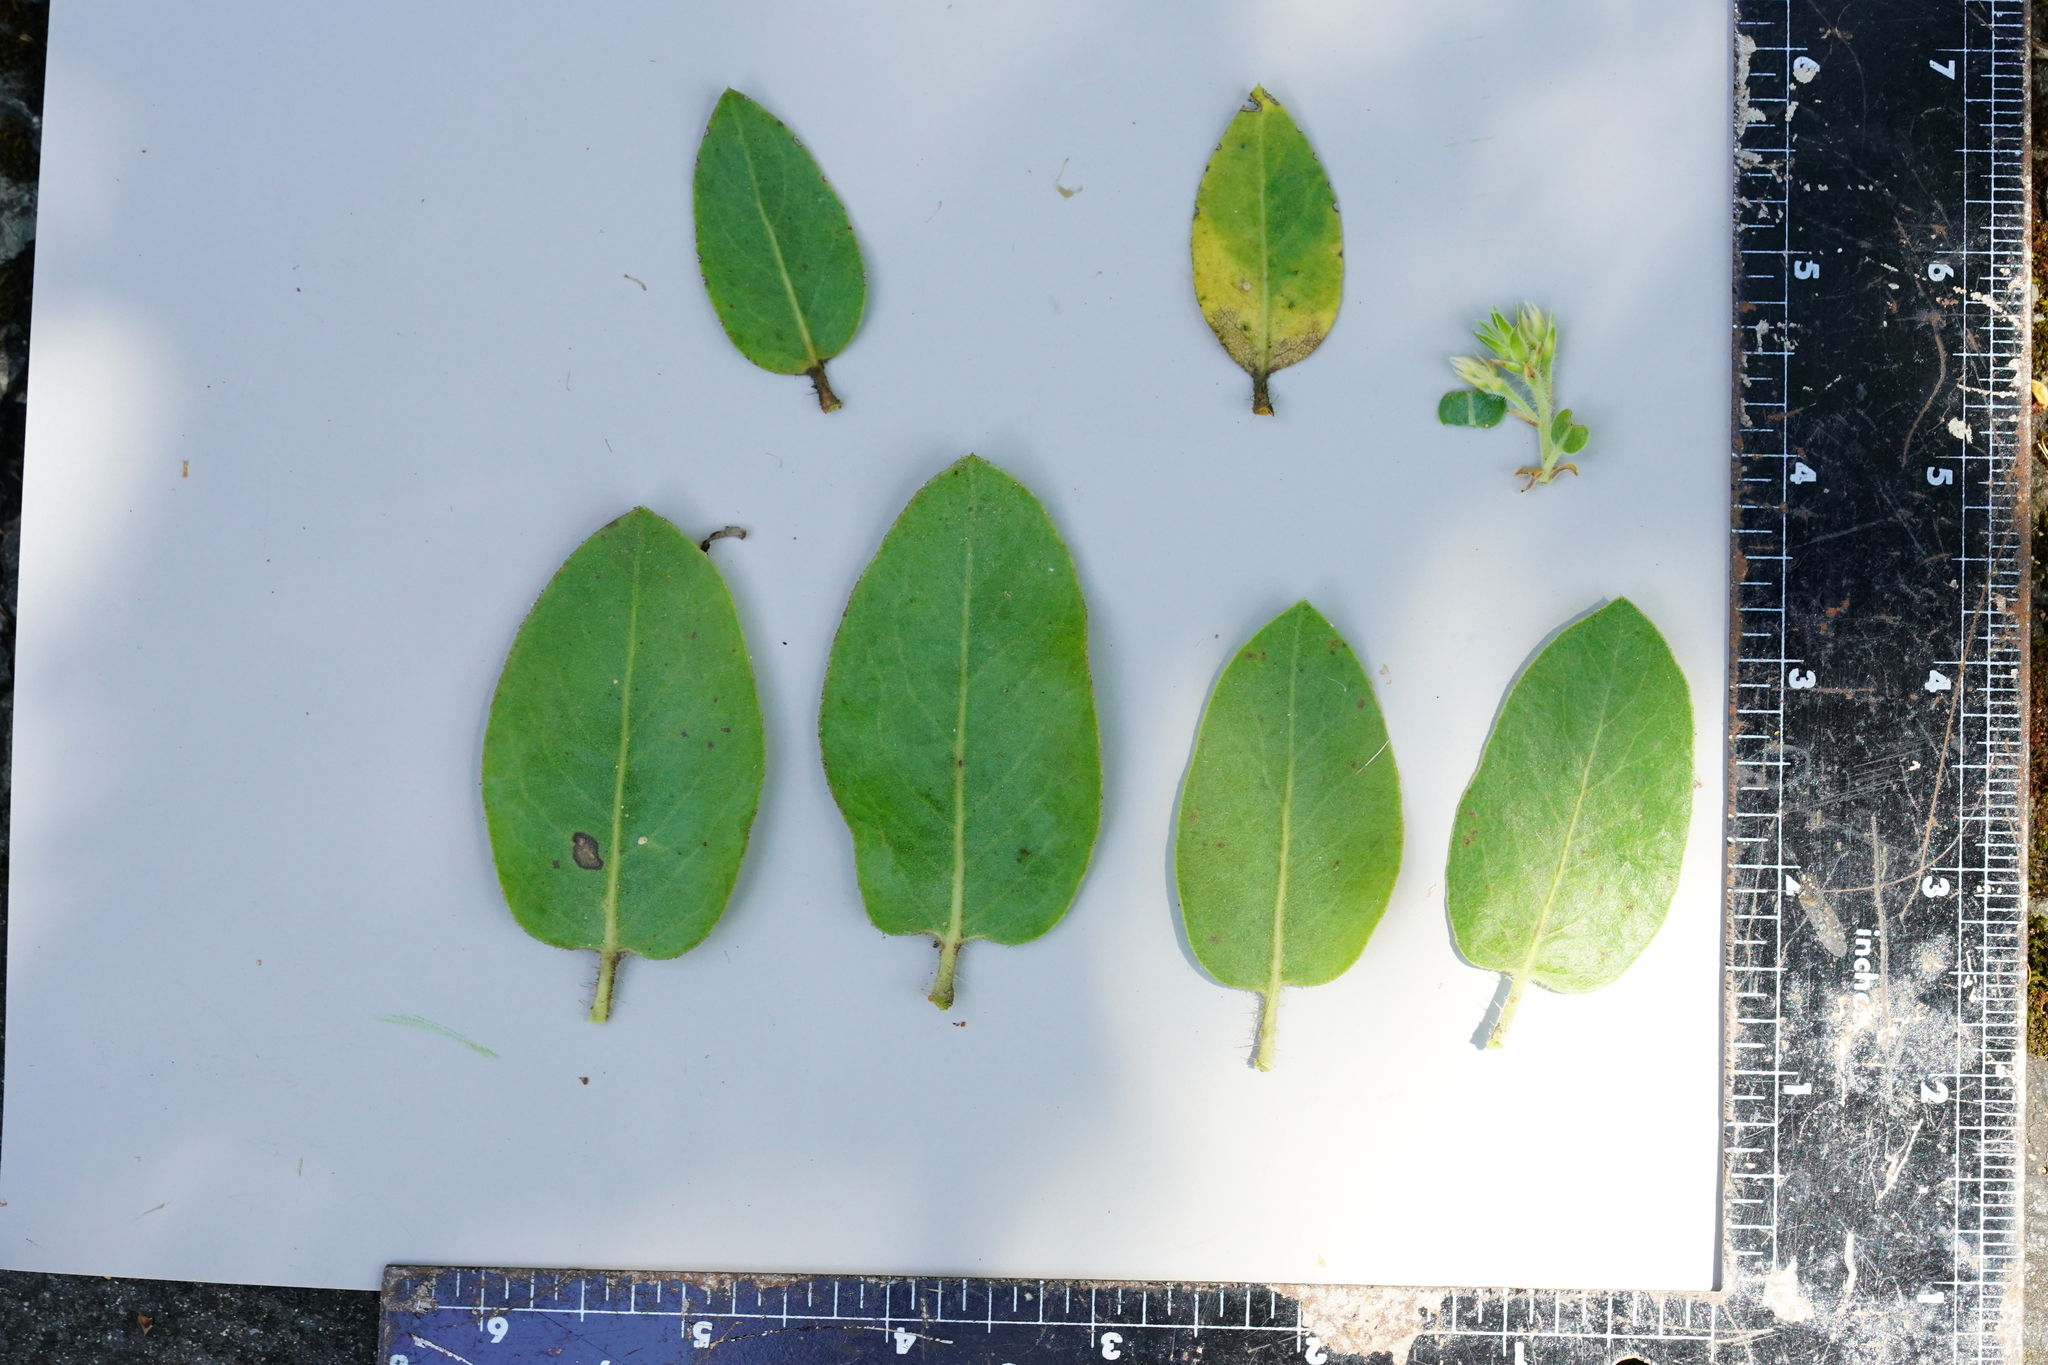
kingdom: Plantae
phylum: Tracheophyta
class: Magnoliopsida
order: Ericales
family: Ericaceae
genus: Arctostaphylos
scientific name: Arctostaphylos crustacea
